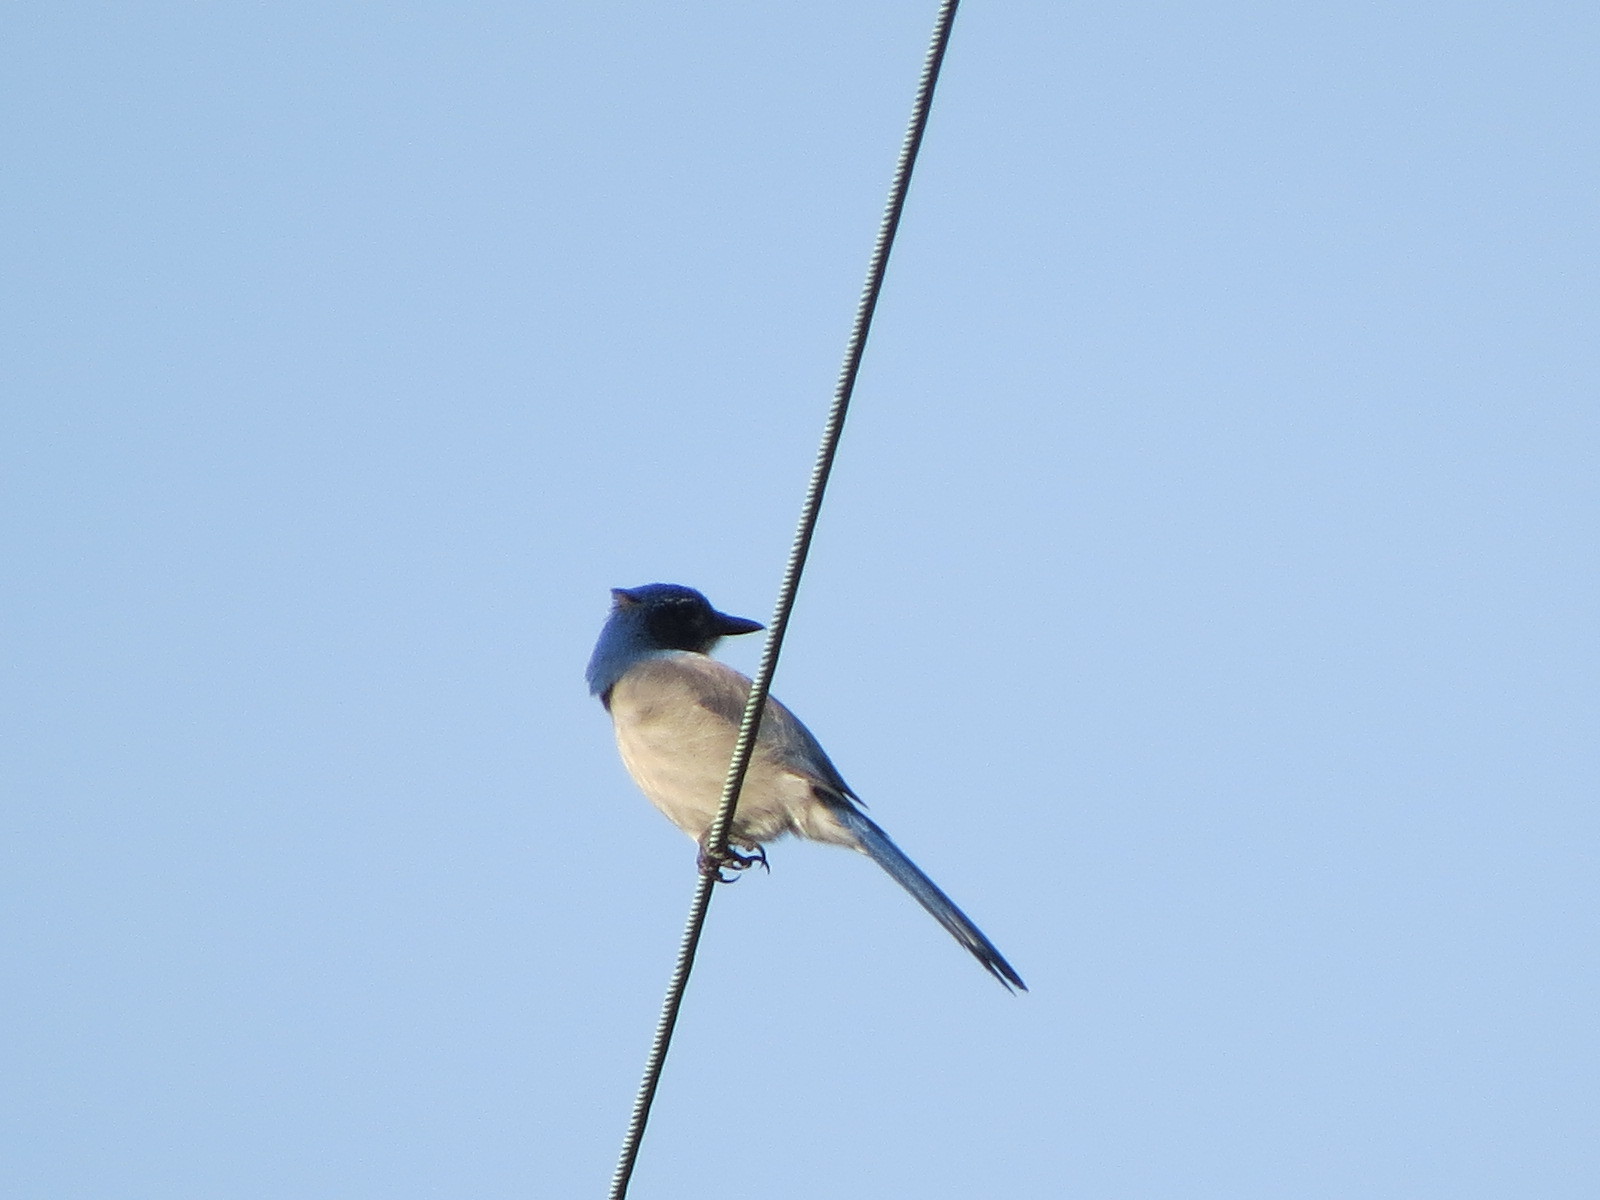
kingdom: Animalia
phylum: Chordata
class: Aves
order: Passeriformes
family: Corvidae
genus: Aphelocoma
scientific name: Aphelocoma californica
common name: California scrub-jay
